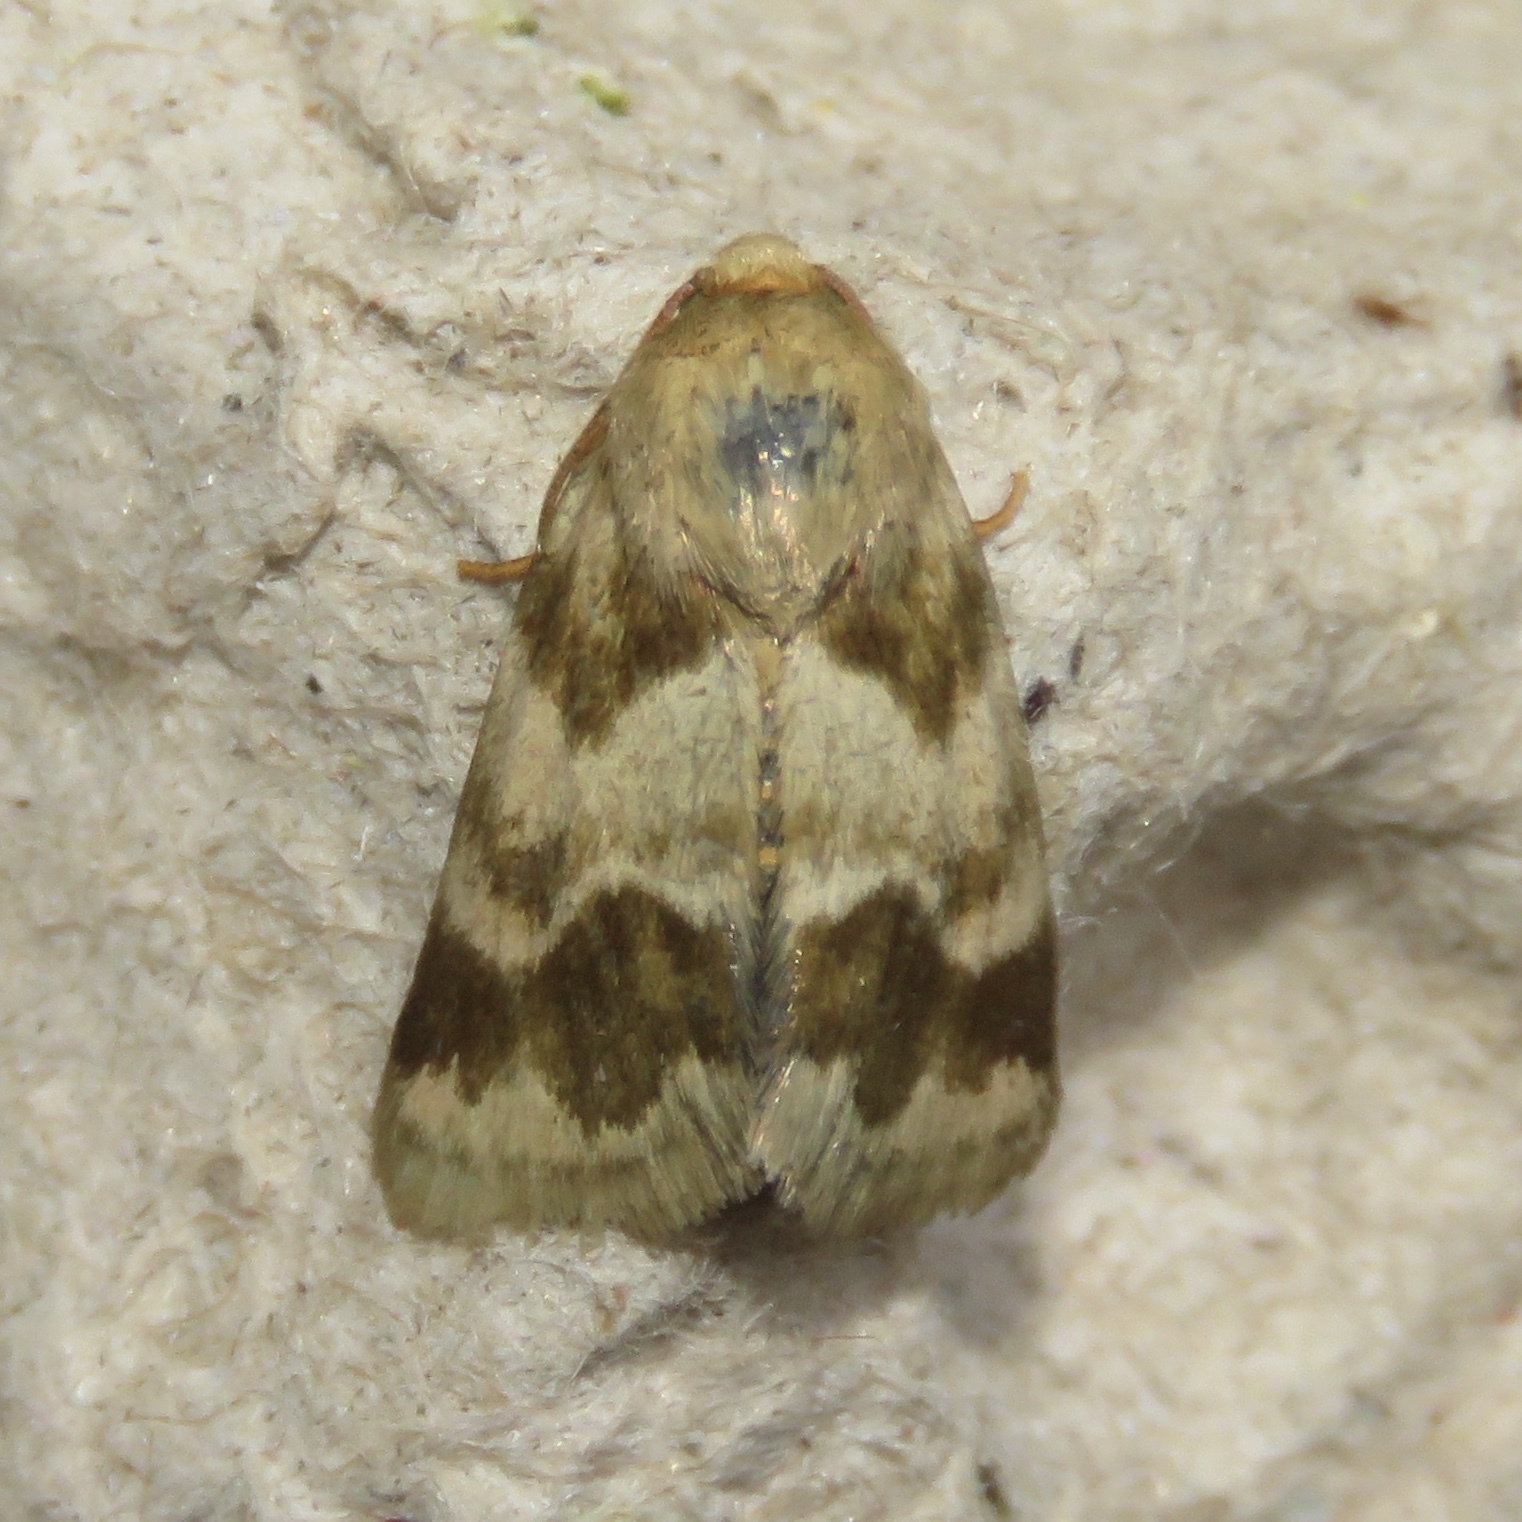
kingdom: Animalia
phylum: Arthropoda
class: Insecta
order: Lepidoptera
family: Noctuidae
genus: Schinia
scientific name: Schinia obscurata
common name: Erigeron flower moth
